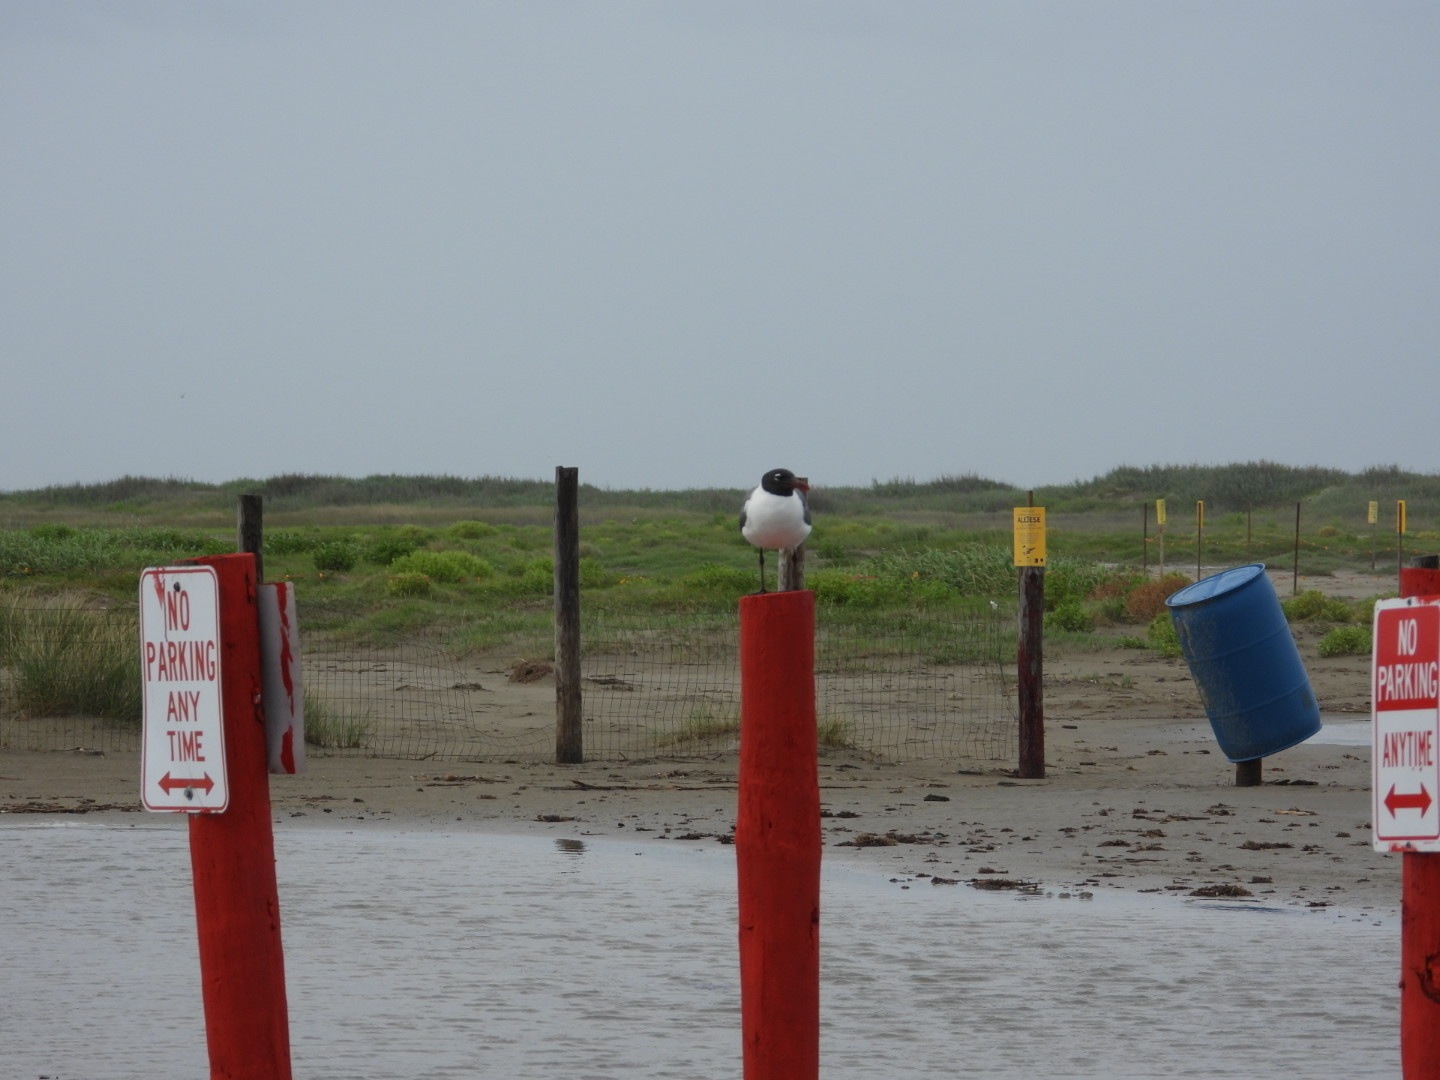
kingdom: Animalia
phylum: Chordata
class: Aves
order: Charadriiformes
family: Laridae
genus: Leucophaeus
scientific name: Leucophaeus atricilla
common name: Laughing gull
